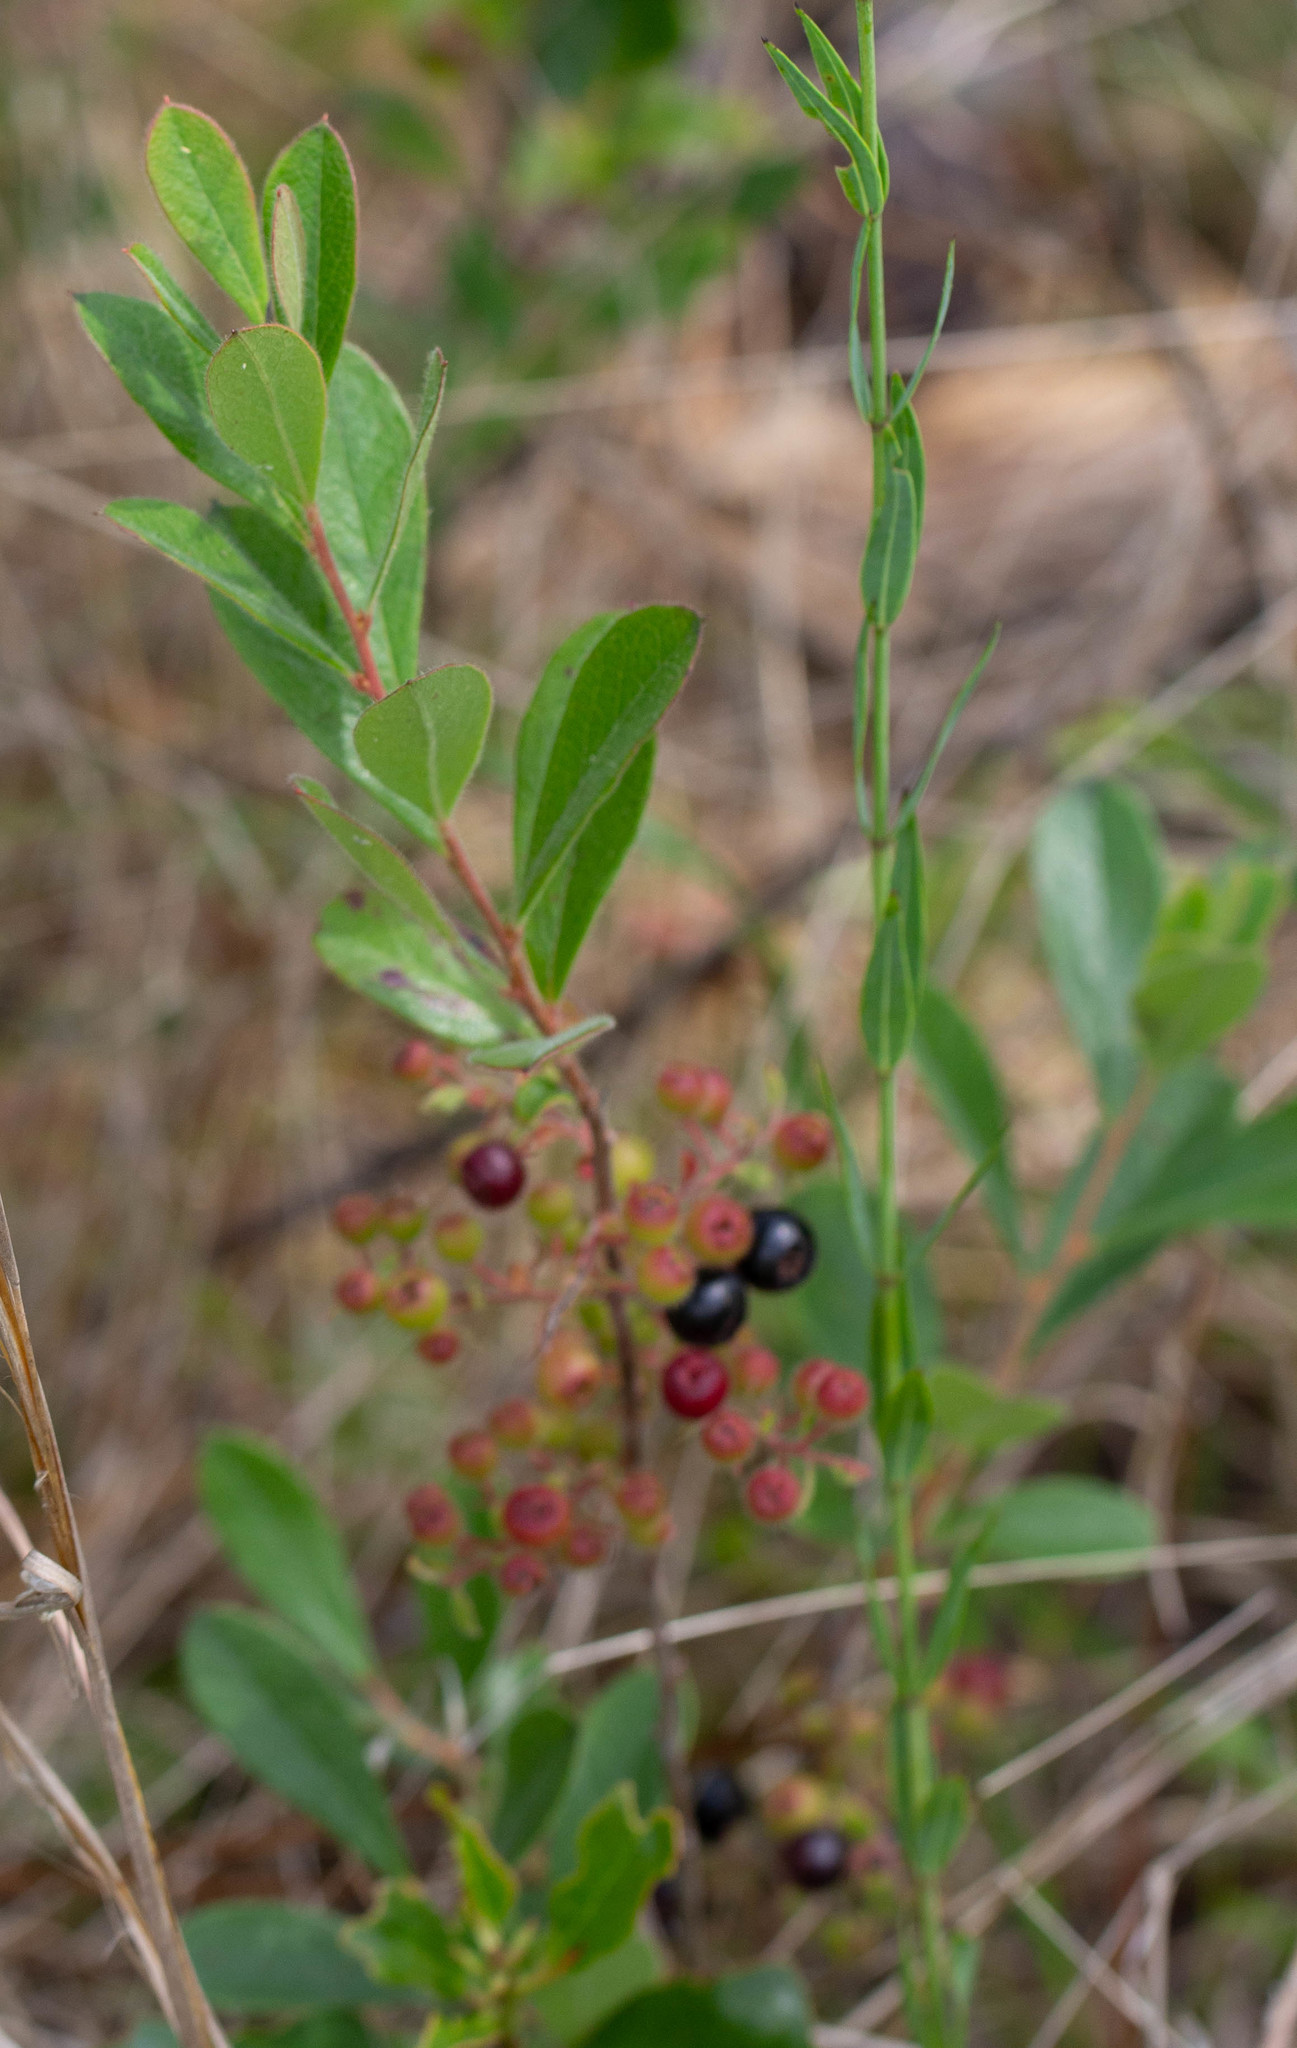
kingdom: Plantae
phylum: Tracheophyta
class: Magnoliopsida
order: Ericales
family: Ericaceae
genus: Gaylussacia
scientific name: Gaylussacia mosieri
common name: Hirsute huckleberry
